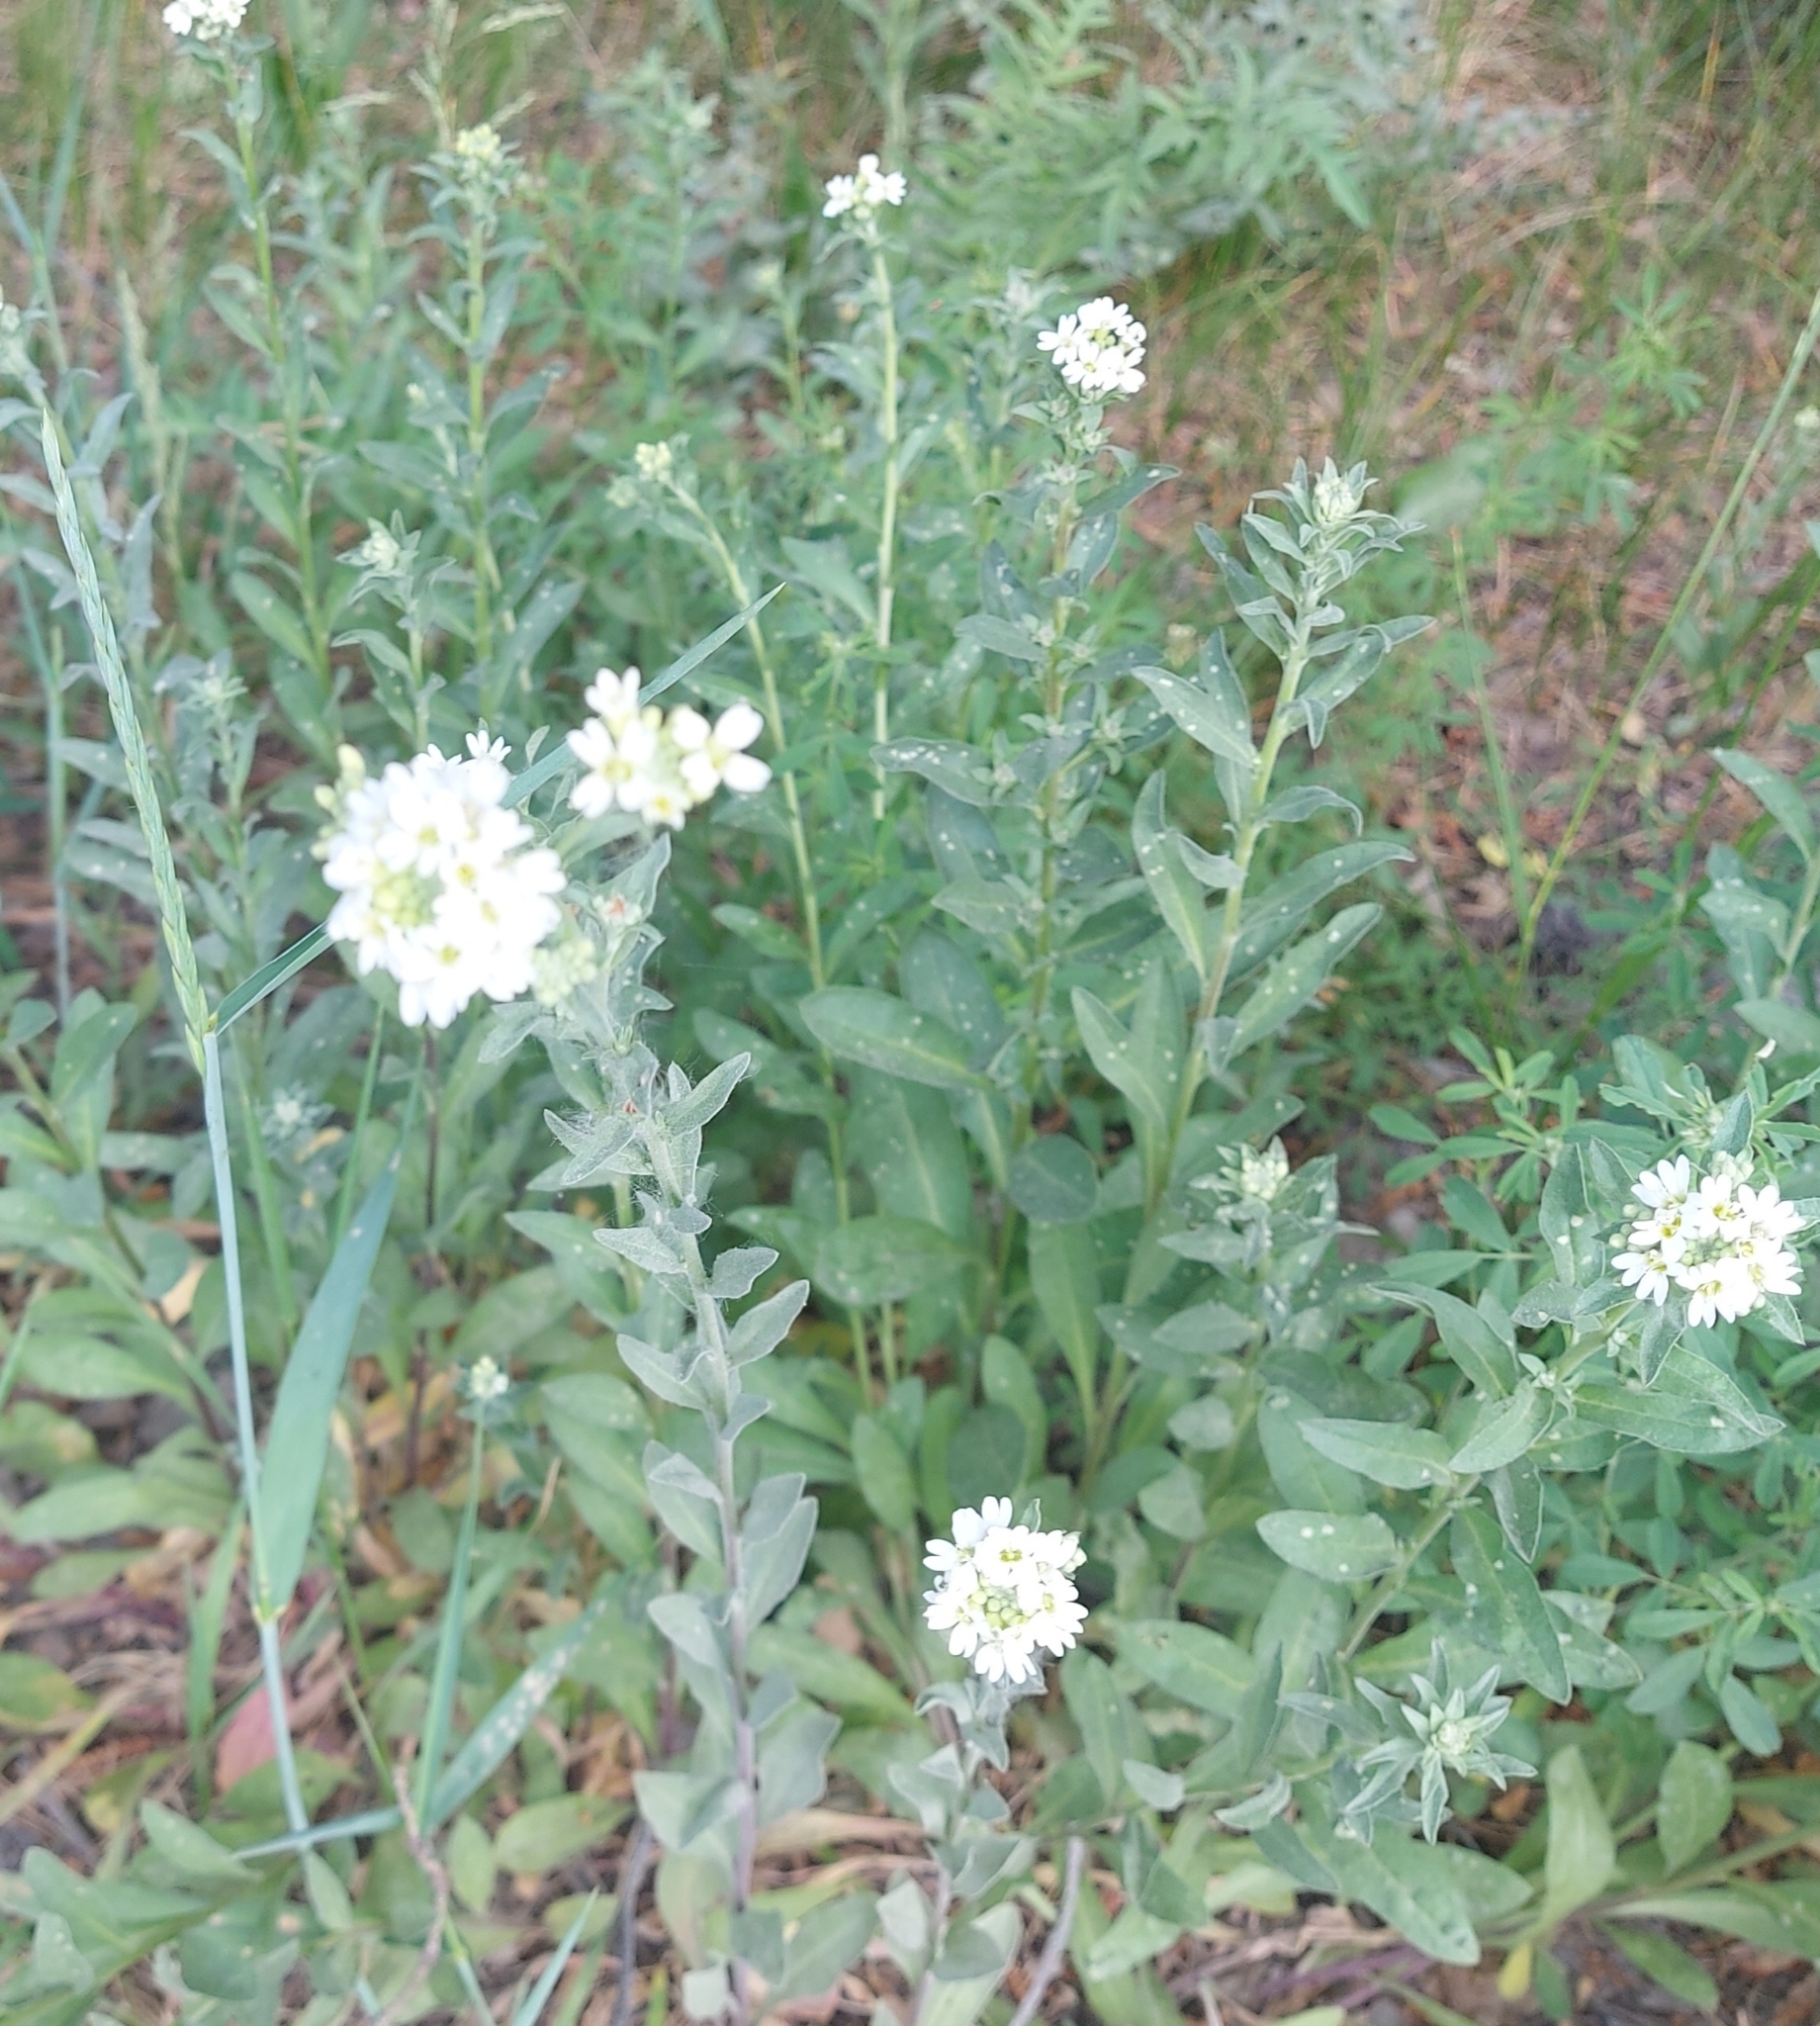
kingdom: Plantae
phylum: Tracheophyta
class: Magnoliopsida
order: Brassicales
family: Brassicaceae
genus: Berteroa
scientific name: Berteroa incana
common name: Hoary alison
